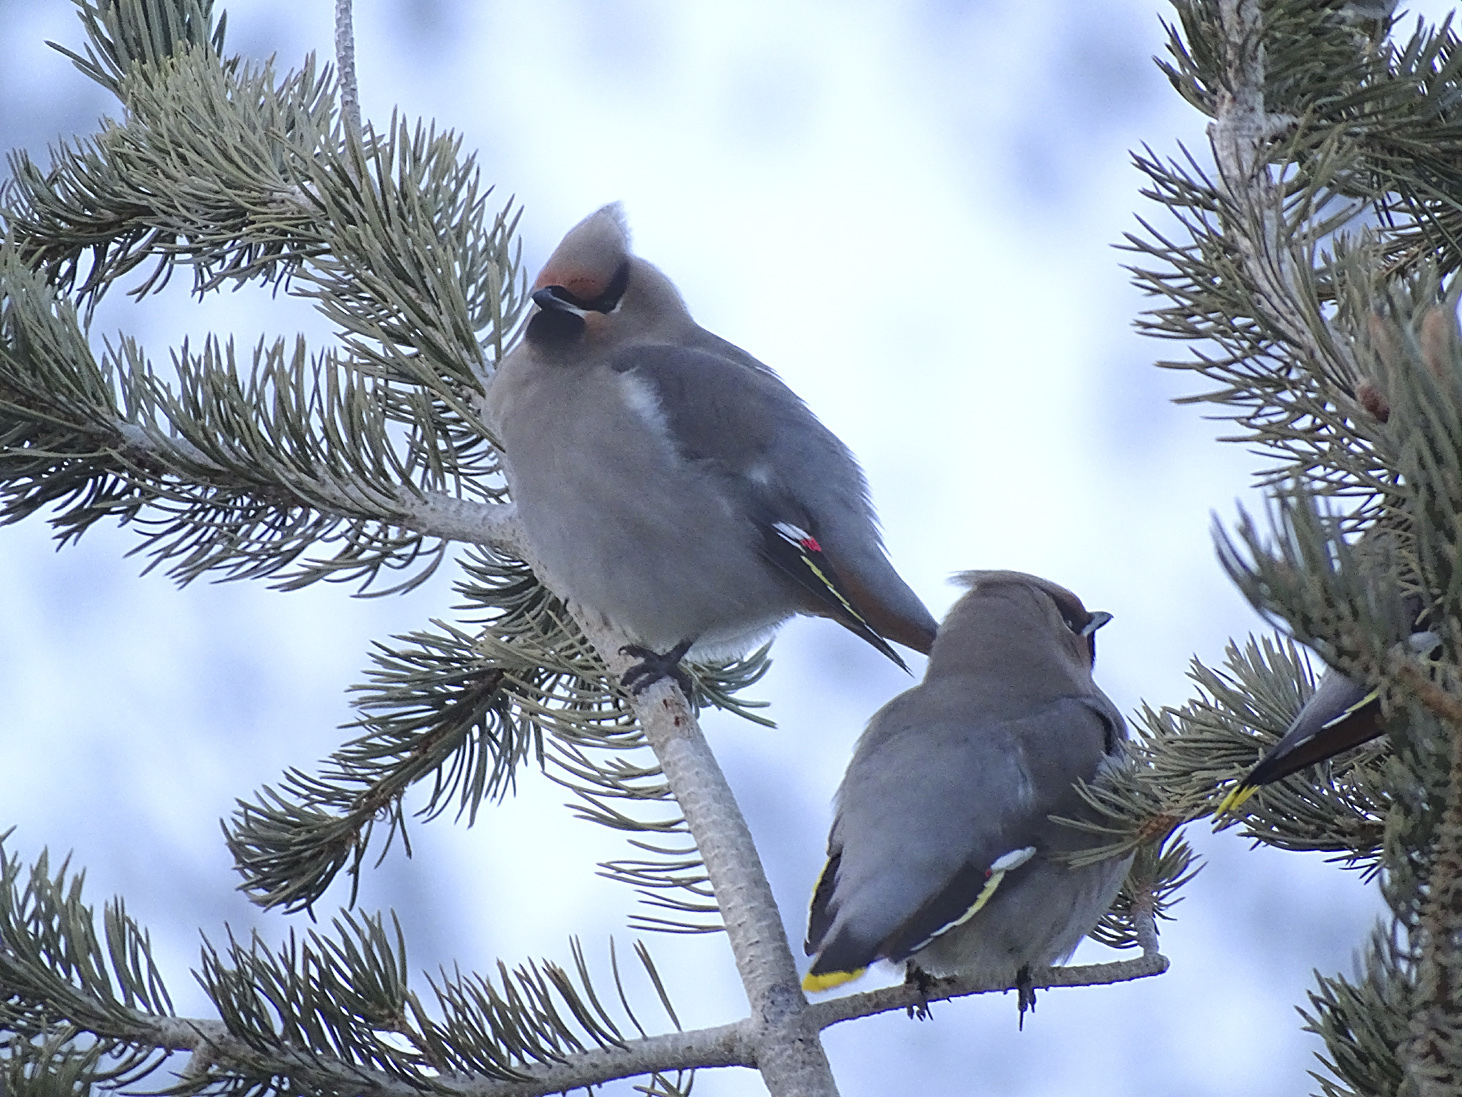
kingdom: Animalia
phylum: Chordata
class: Aves
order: Passeriformes
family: Bombycillidae
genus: Bombycilla
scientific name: Bombycilla garrulus
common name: Bohemian waxwing
